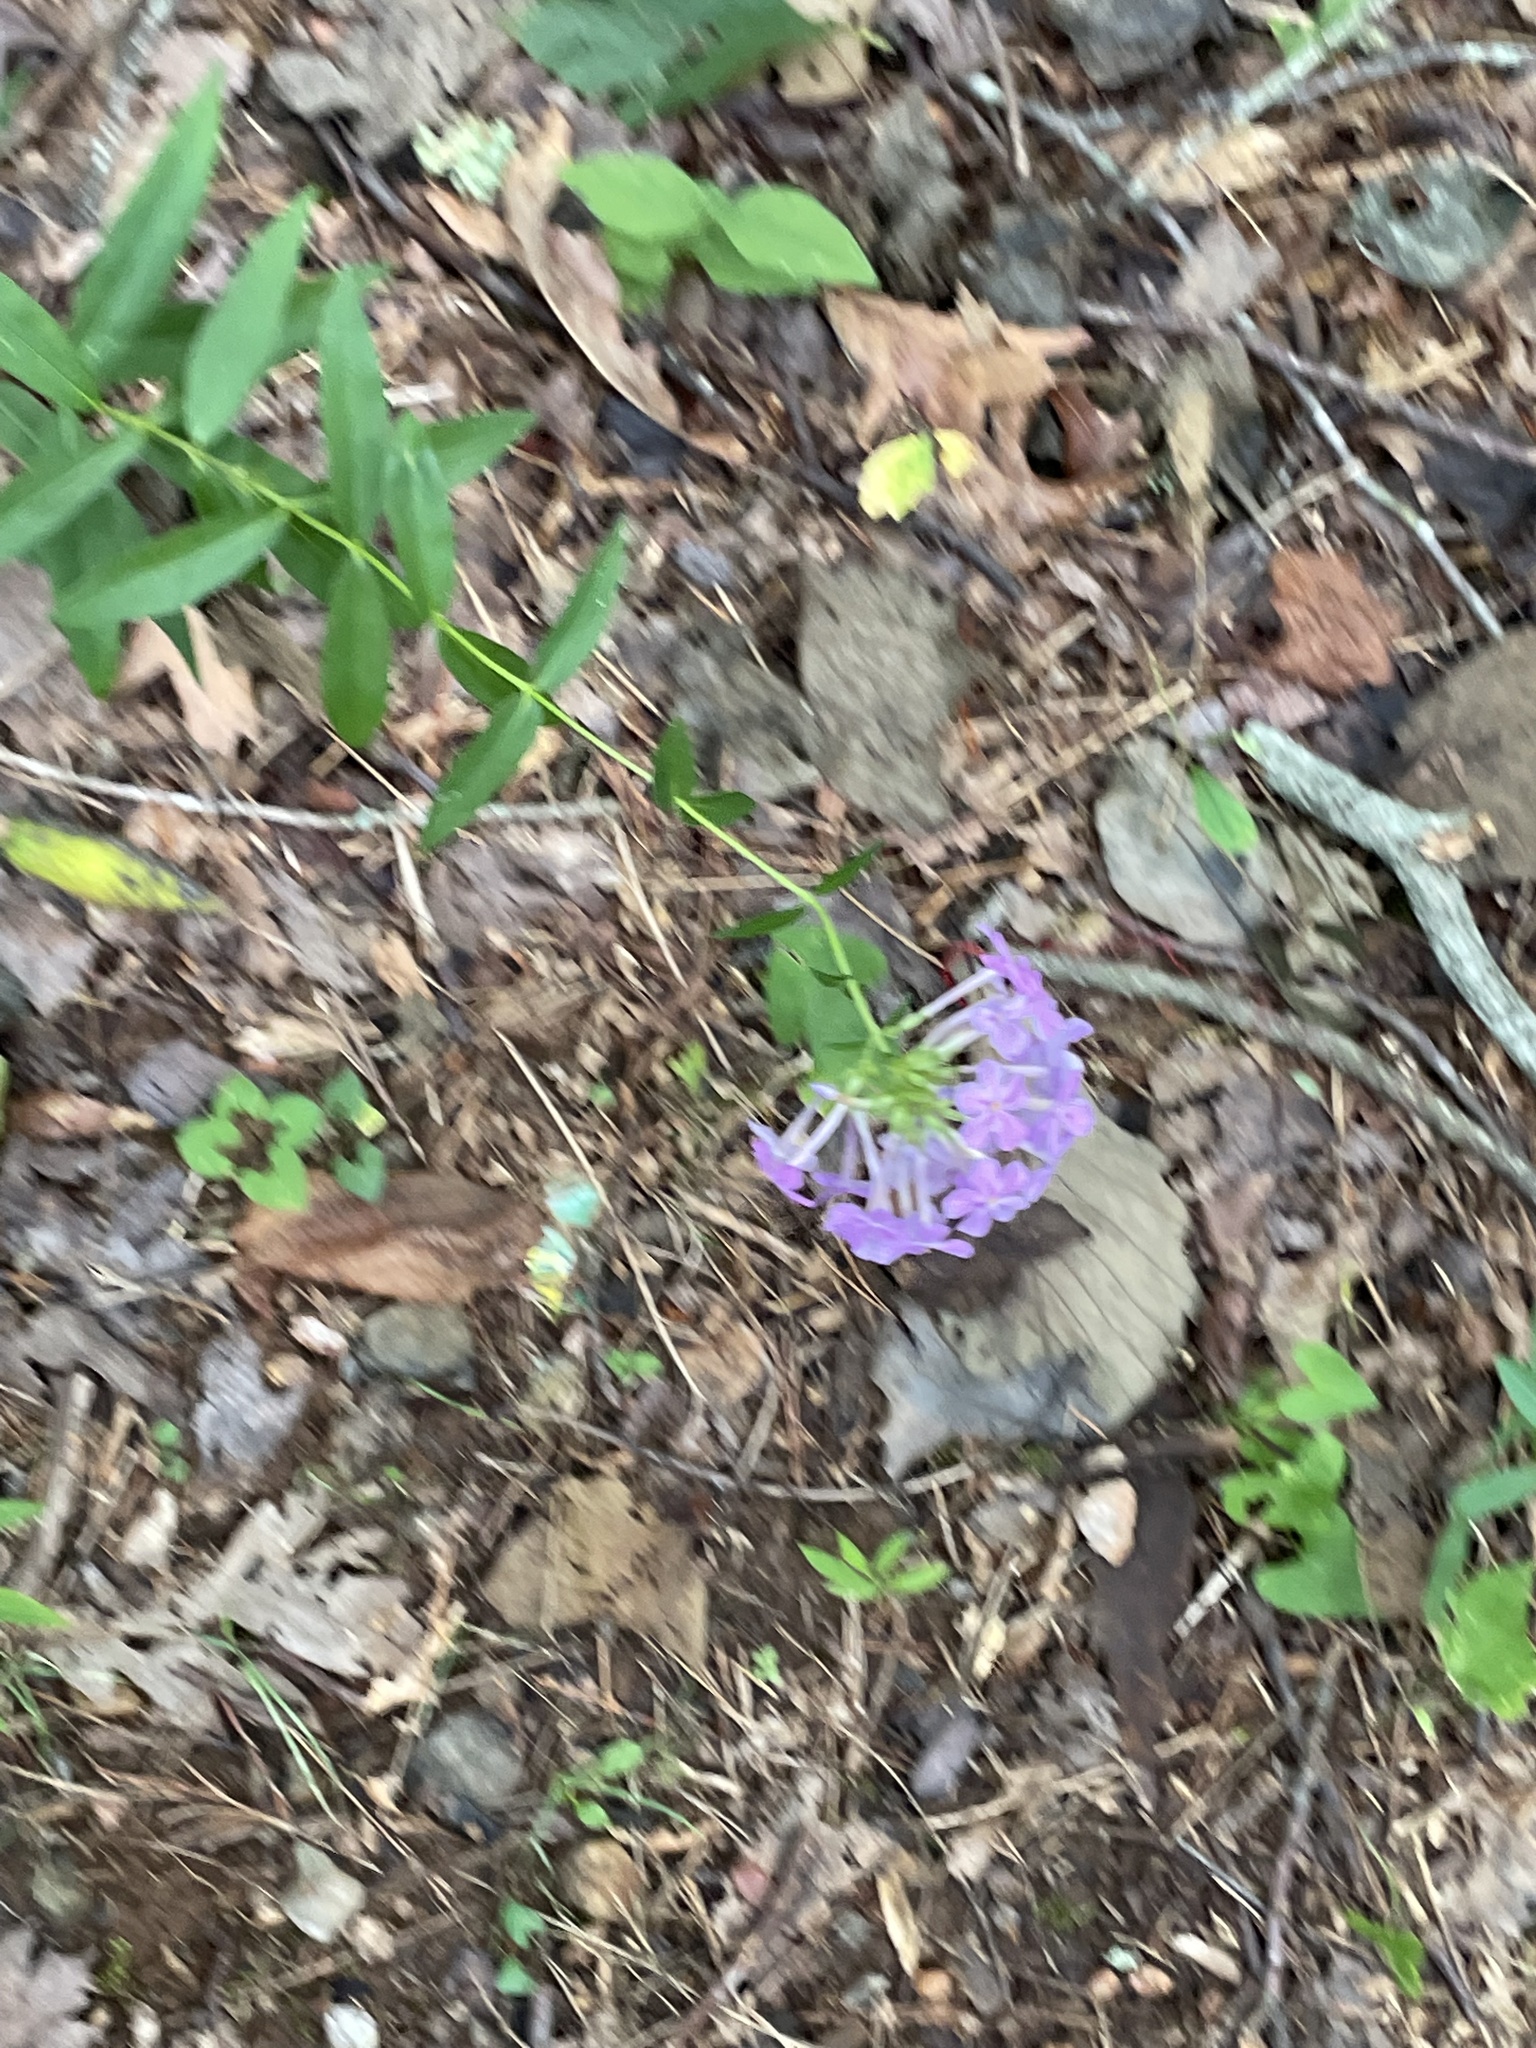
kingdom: Plantae
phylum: Tracheophyta
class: Magnoliopsida
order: Ericales
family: Polemoniaceae
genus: Phlox
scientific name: Phlox carolina
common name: Thick-leaf phlox
